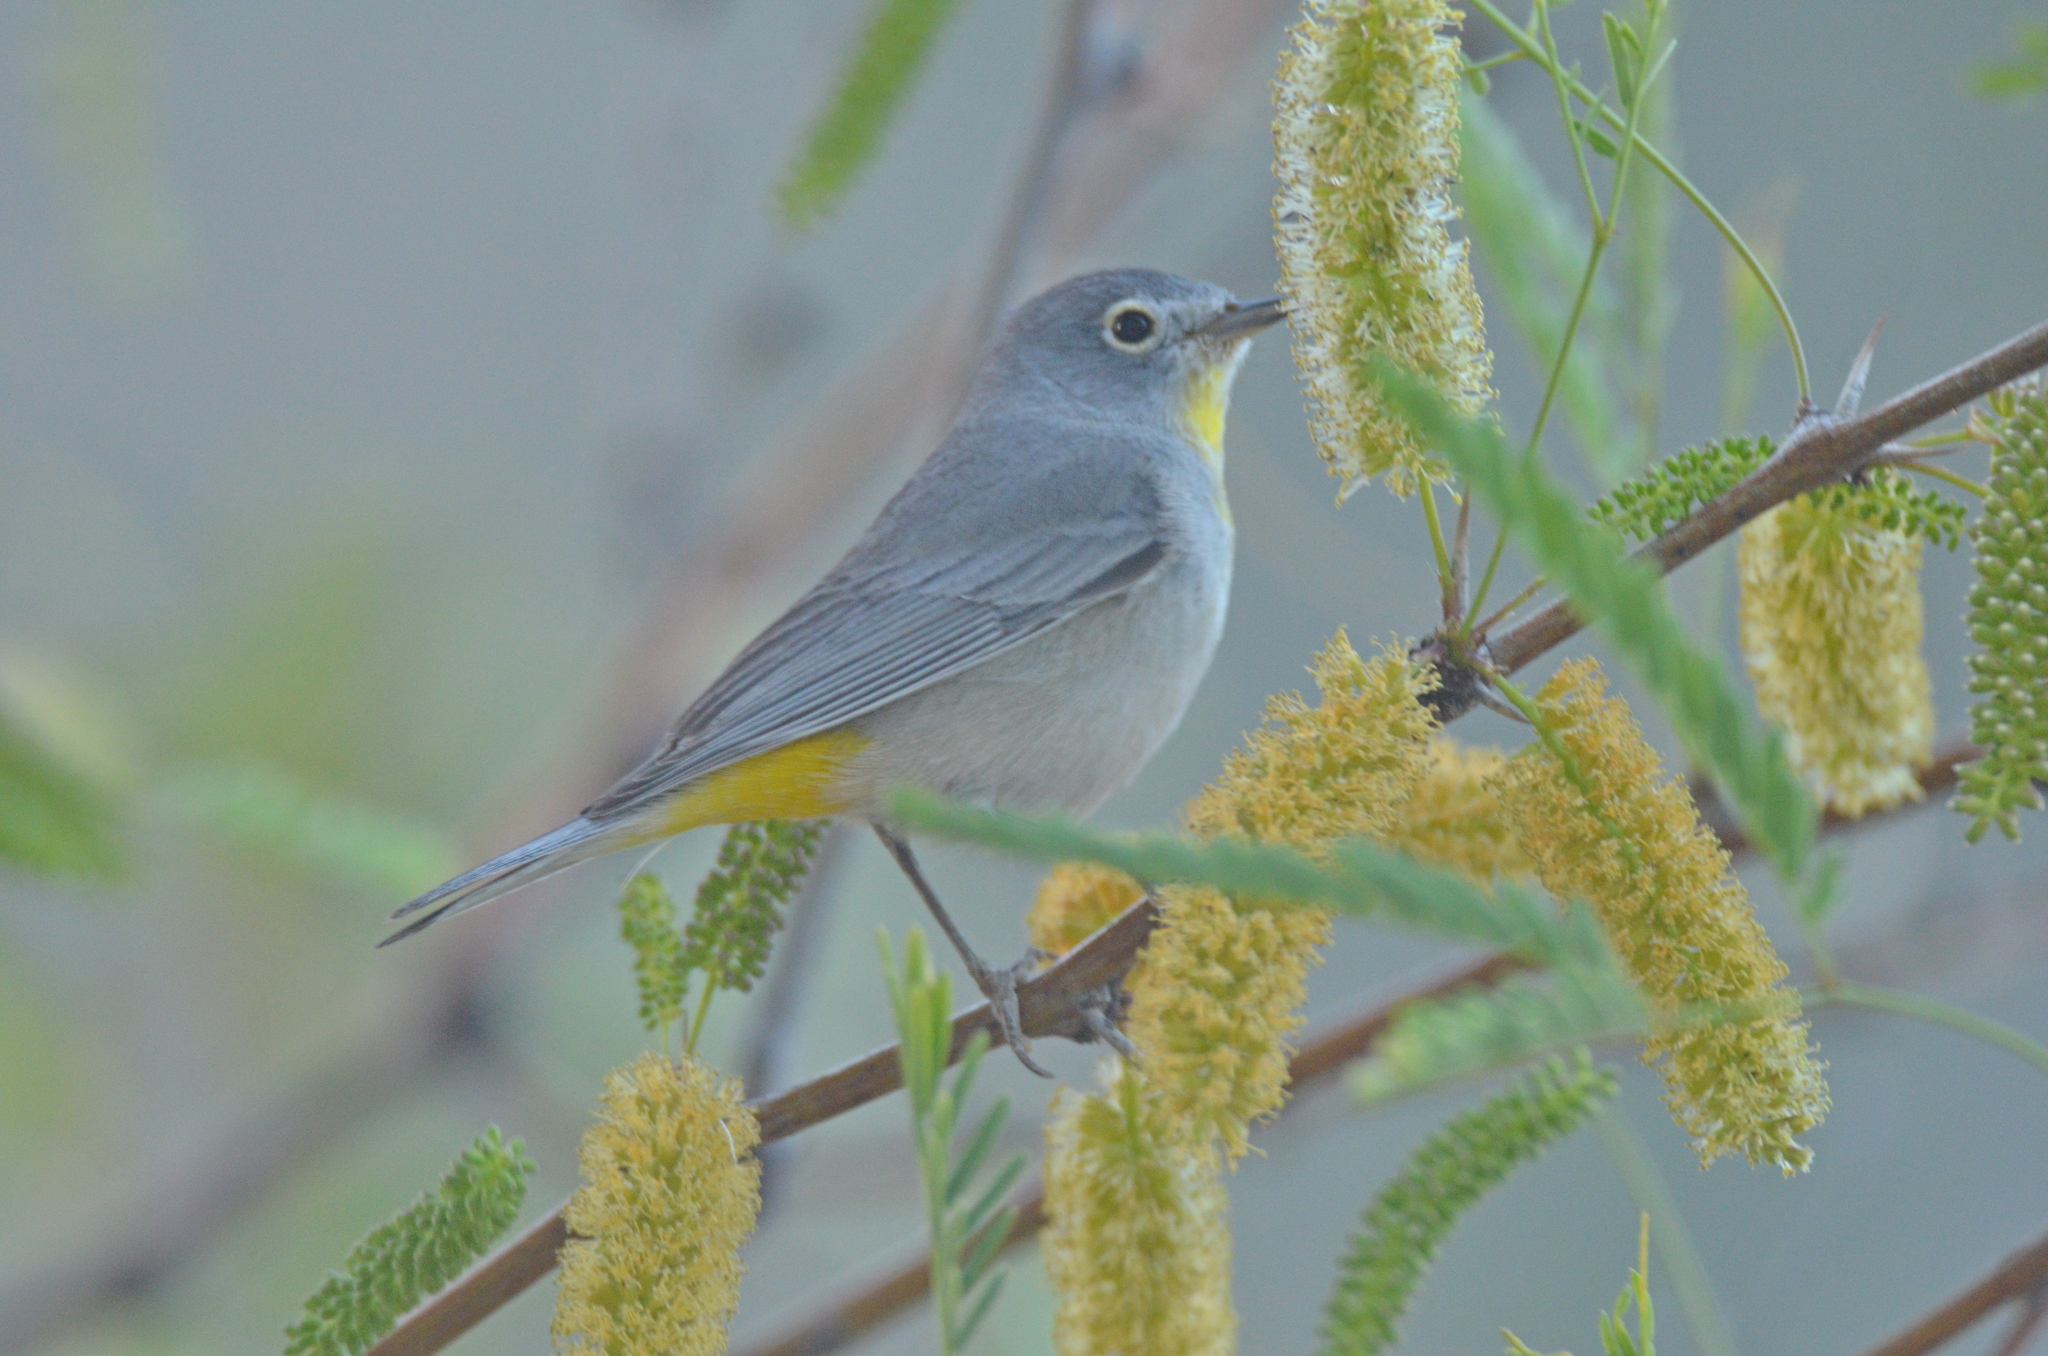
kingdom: Animalia
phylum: Chordata
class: Aves
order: Passeriformes
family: Parulidae
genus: Leiothlypis
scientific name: Leiothlypis virginiae
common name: Virginia's warbler
